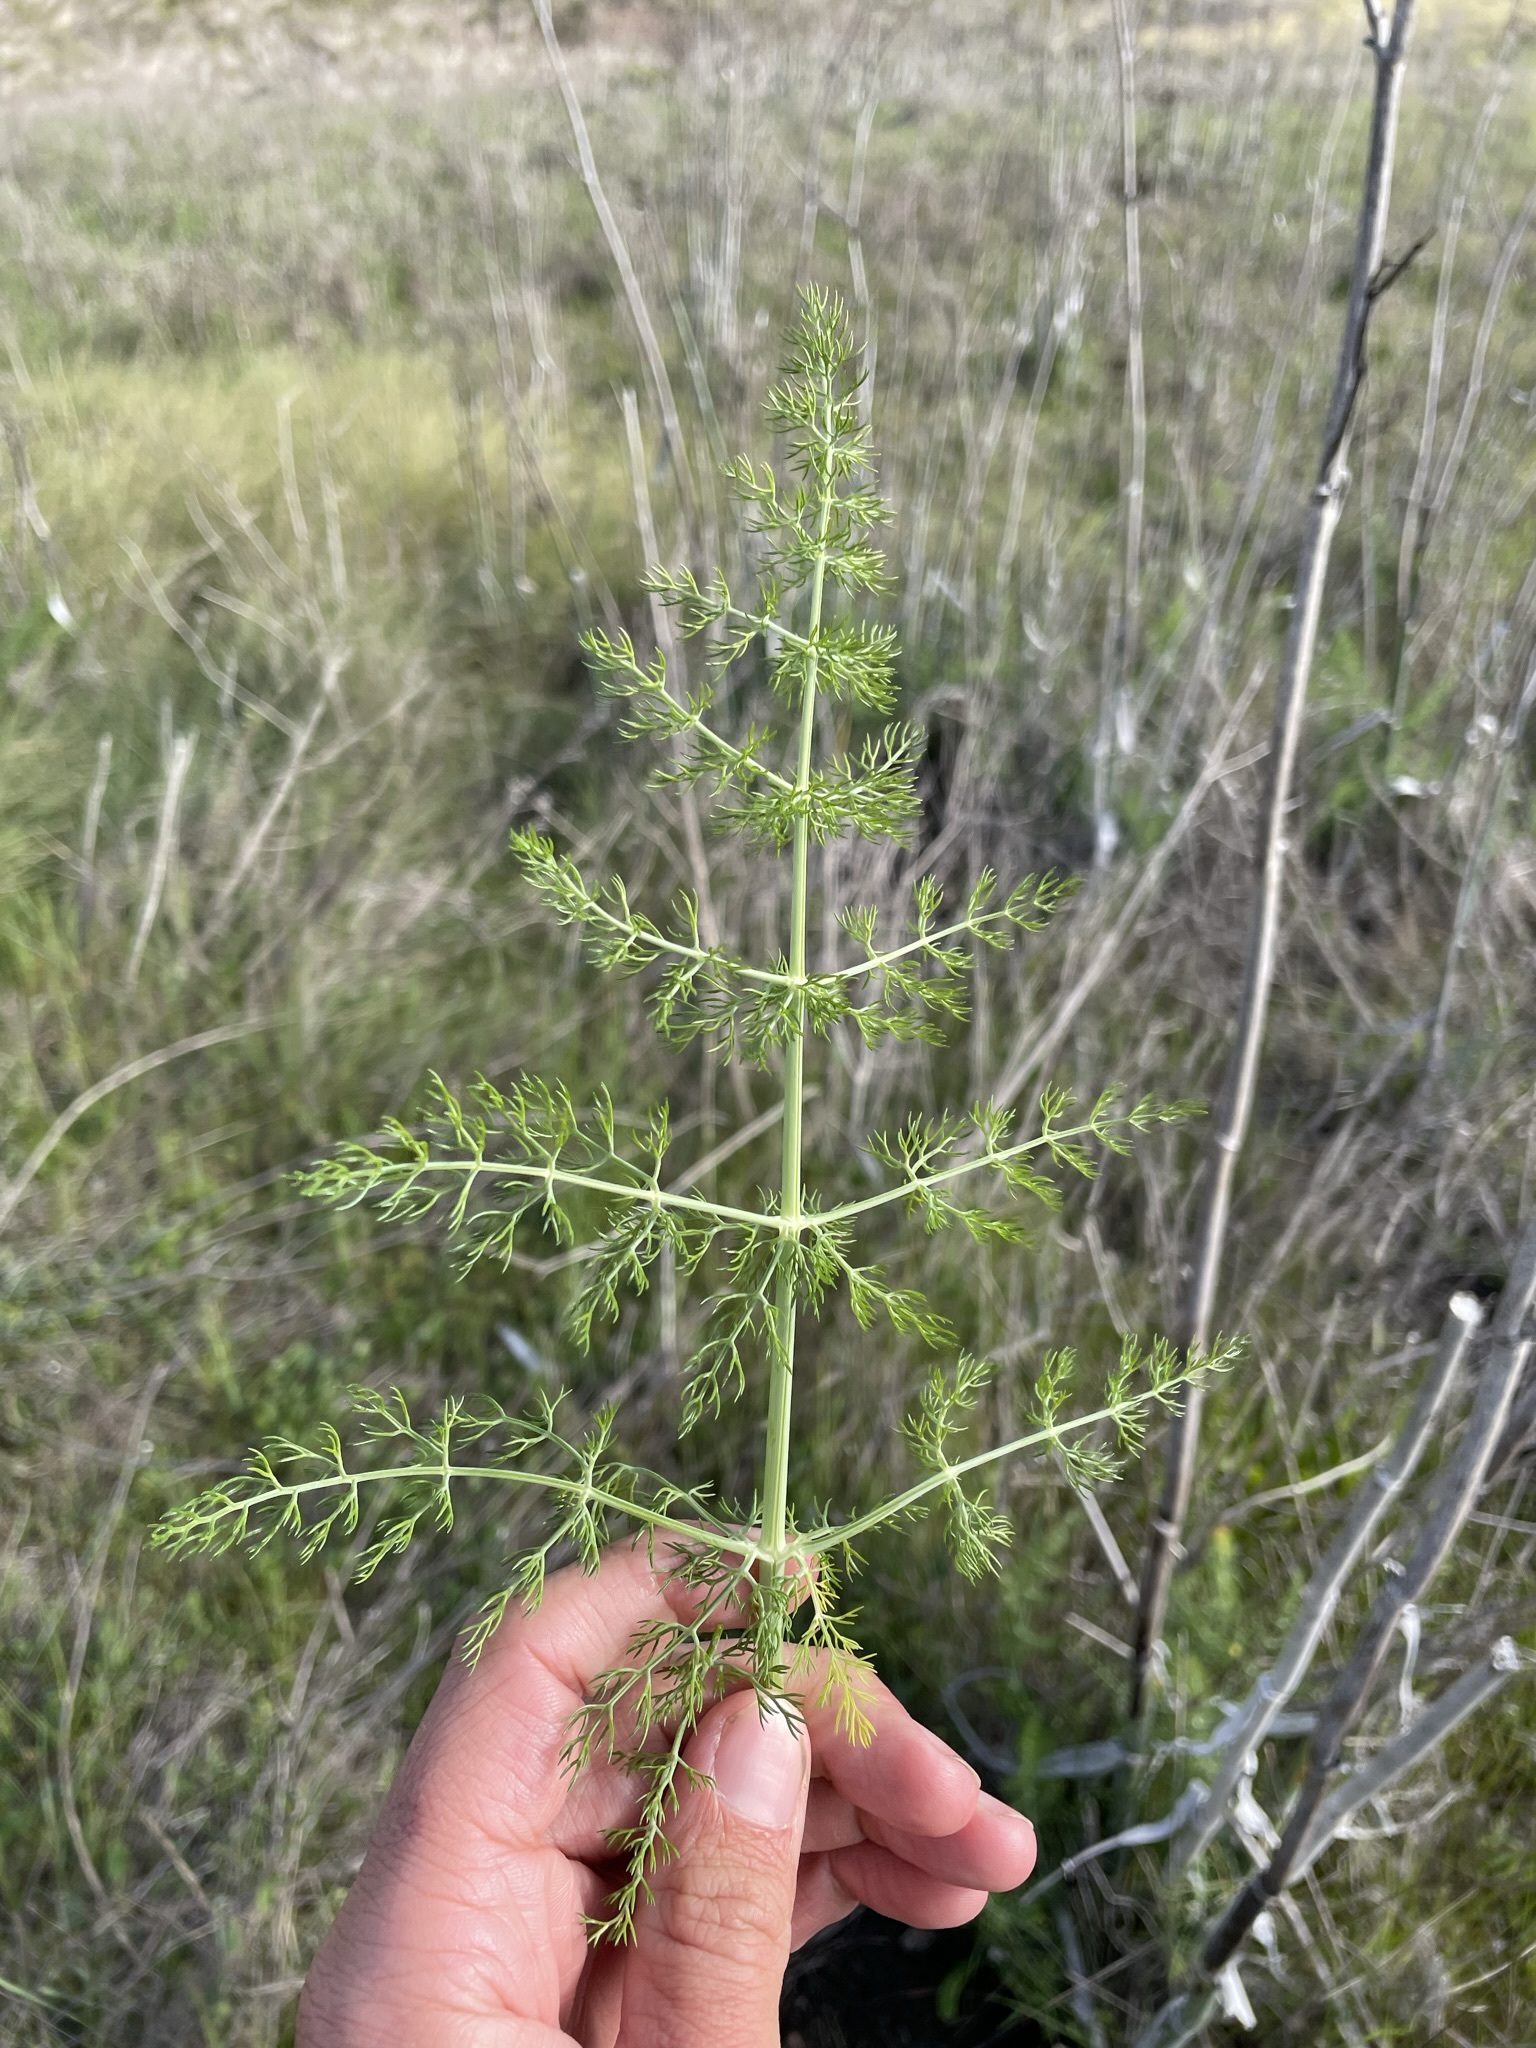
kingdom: Plantae
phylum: Tracheophyta
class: Magnoliopsida
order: Apiales
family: Apiaceae
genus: Foeniculum
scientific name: Foeniculum vulgare
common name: Fennel
